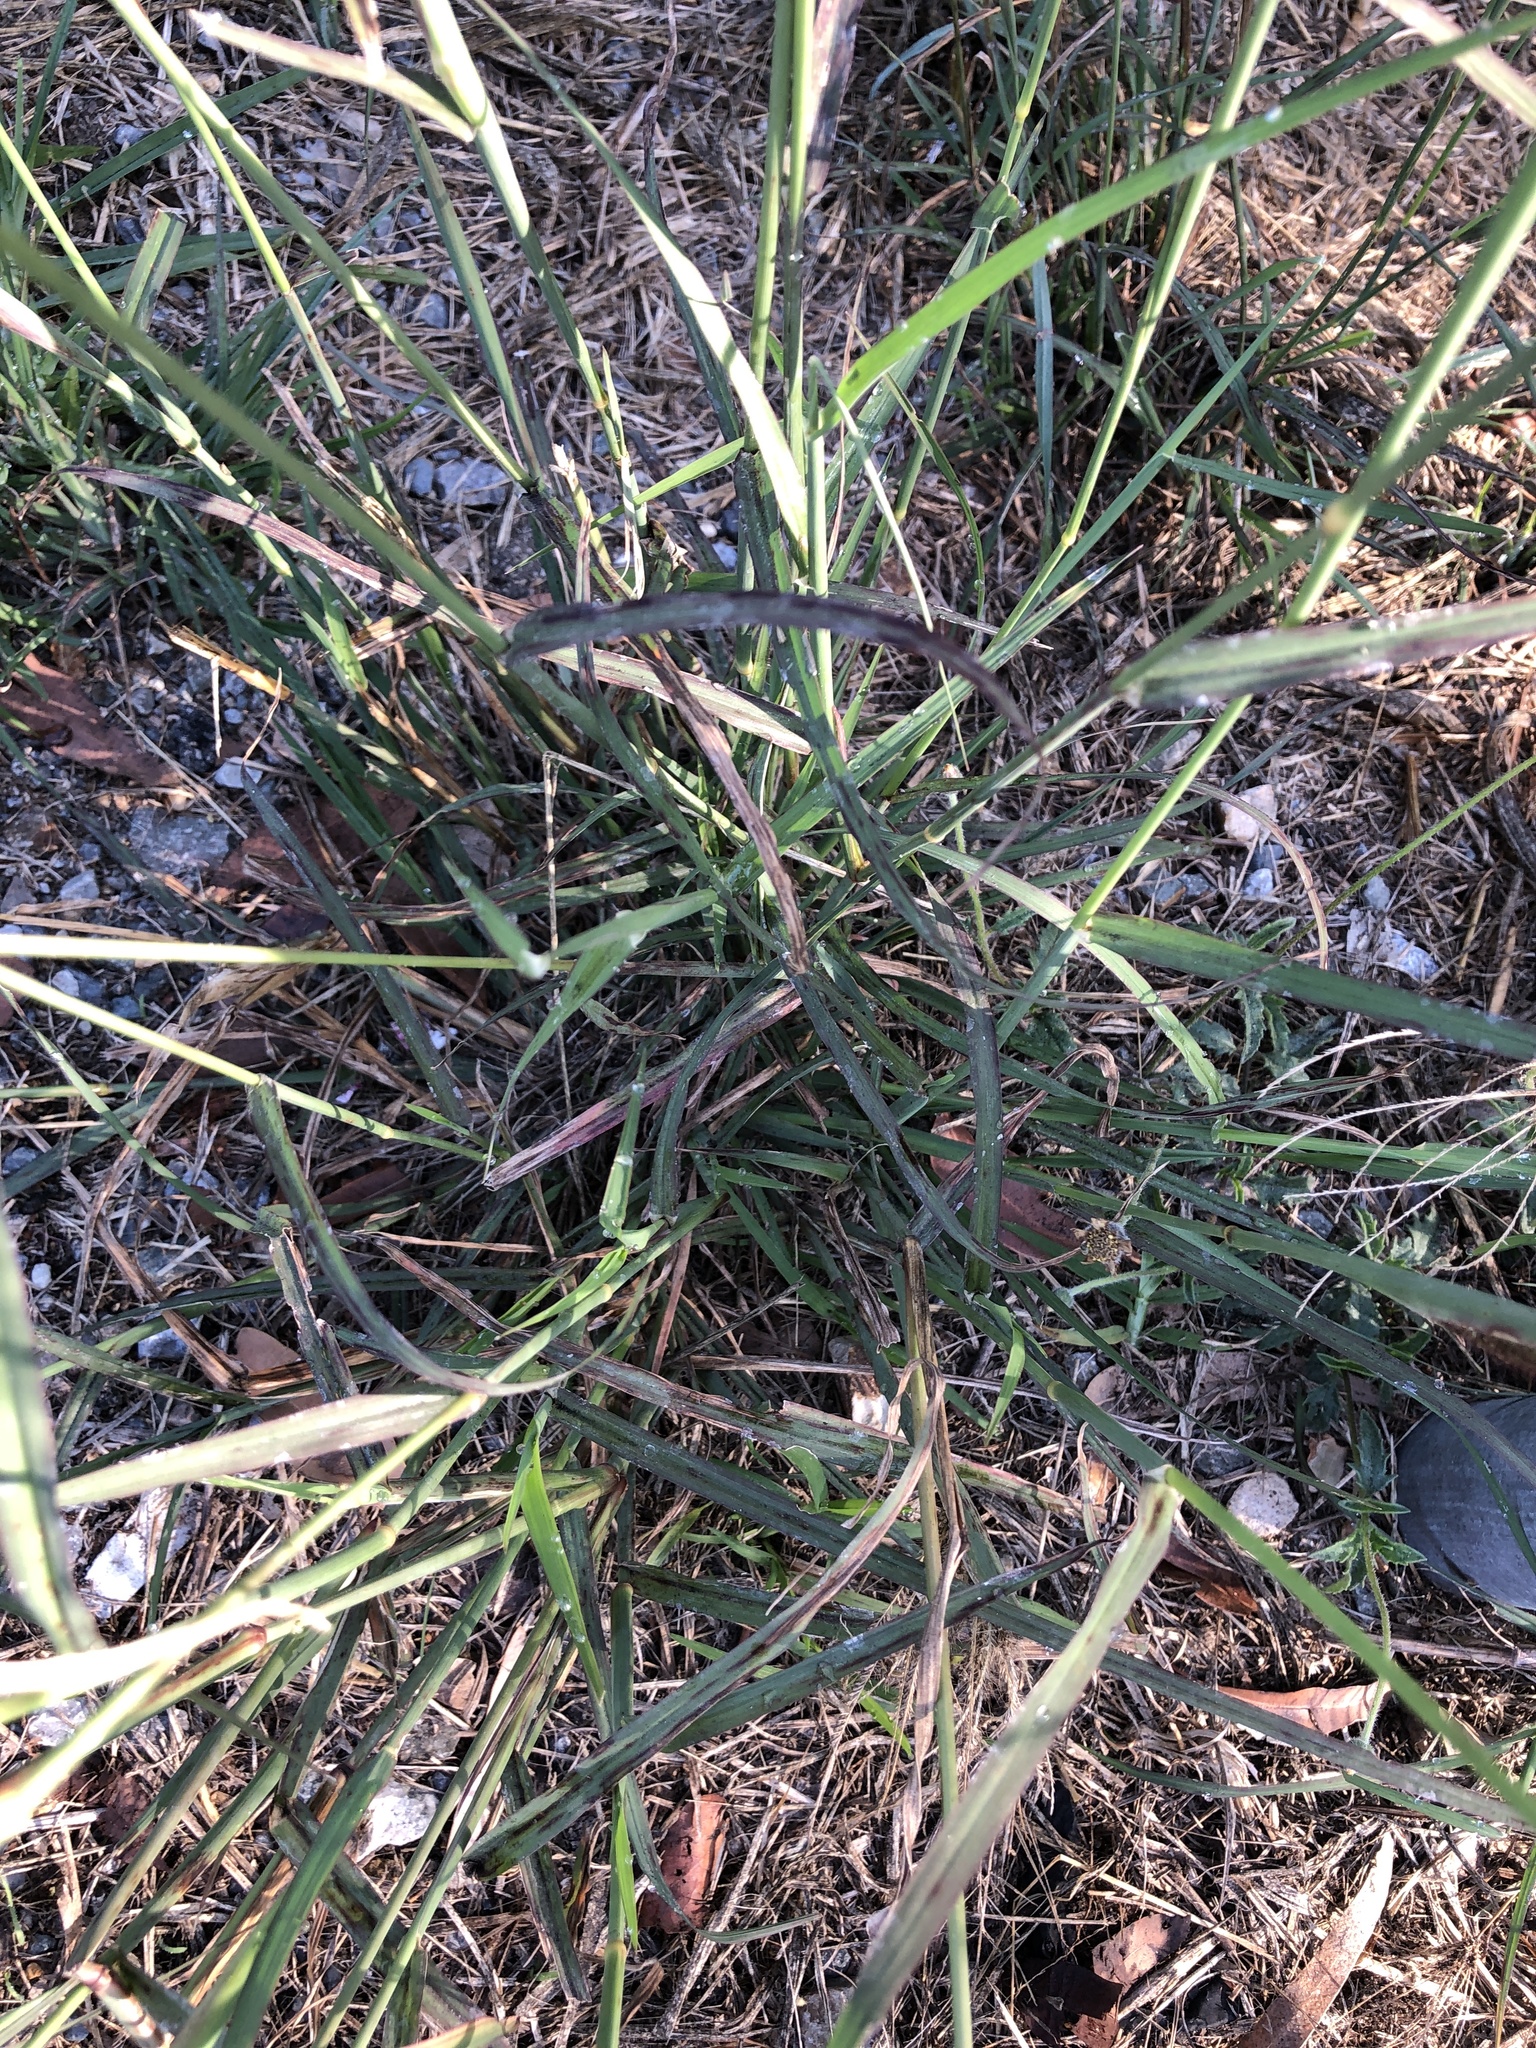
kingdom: Plantae
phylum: Tracheophyta
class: Liliopsida
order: Poales
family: Poaceae
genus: Chloris
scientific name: Chloris barbata
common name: Swollen fingergrass
